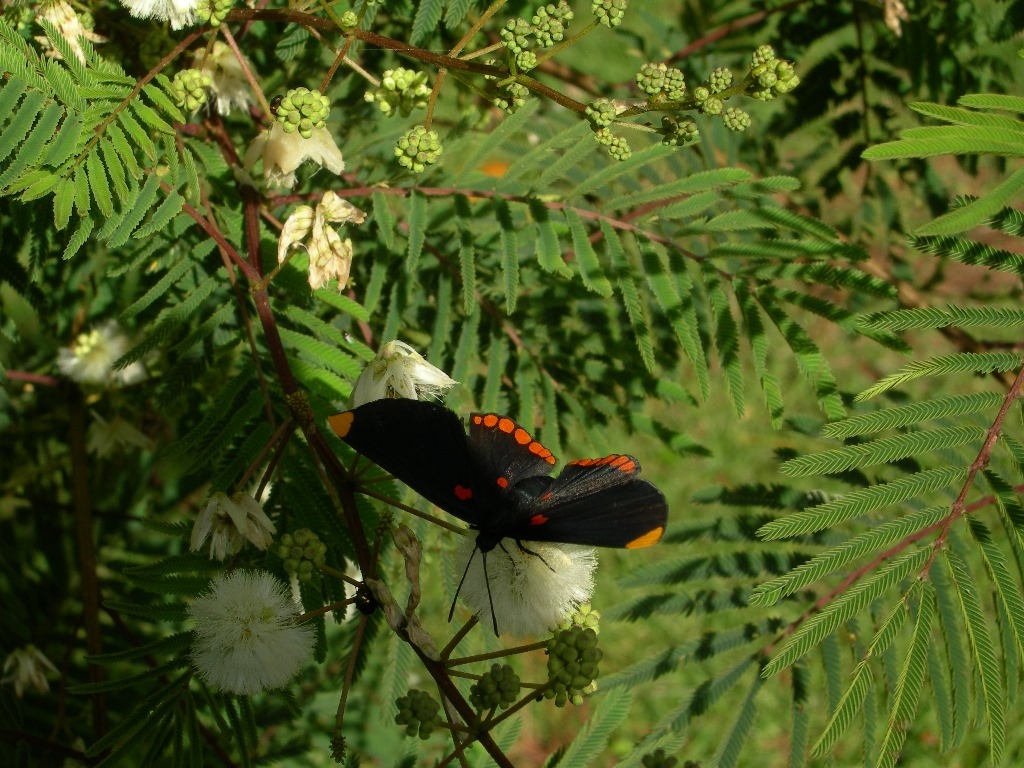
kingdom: Animalia
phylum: Arthropoda
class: Insecta
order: Lepidoptera
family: Lycaenidae
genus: Melanis
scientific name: Melanis pixe
